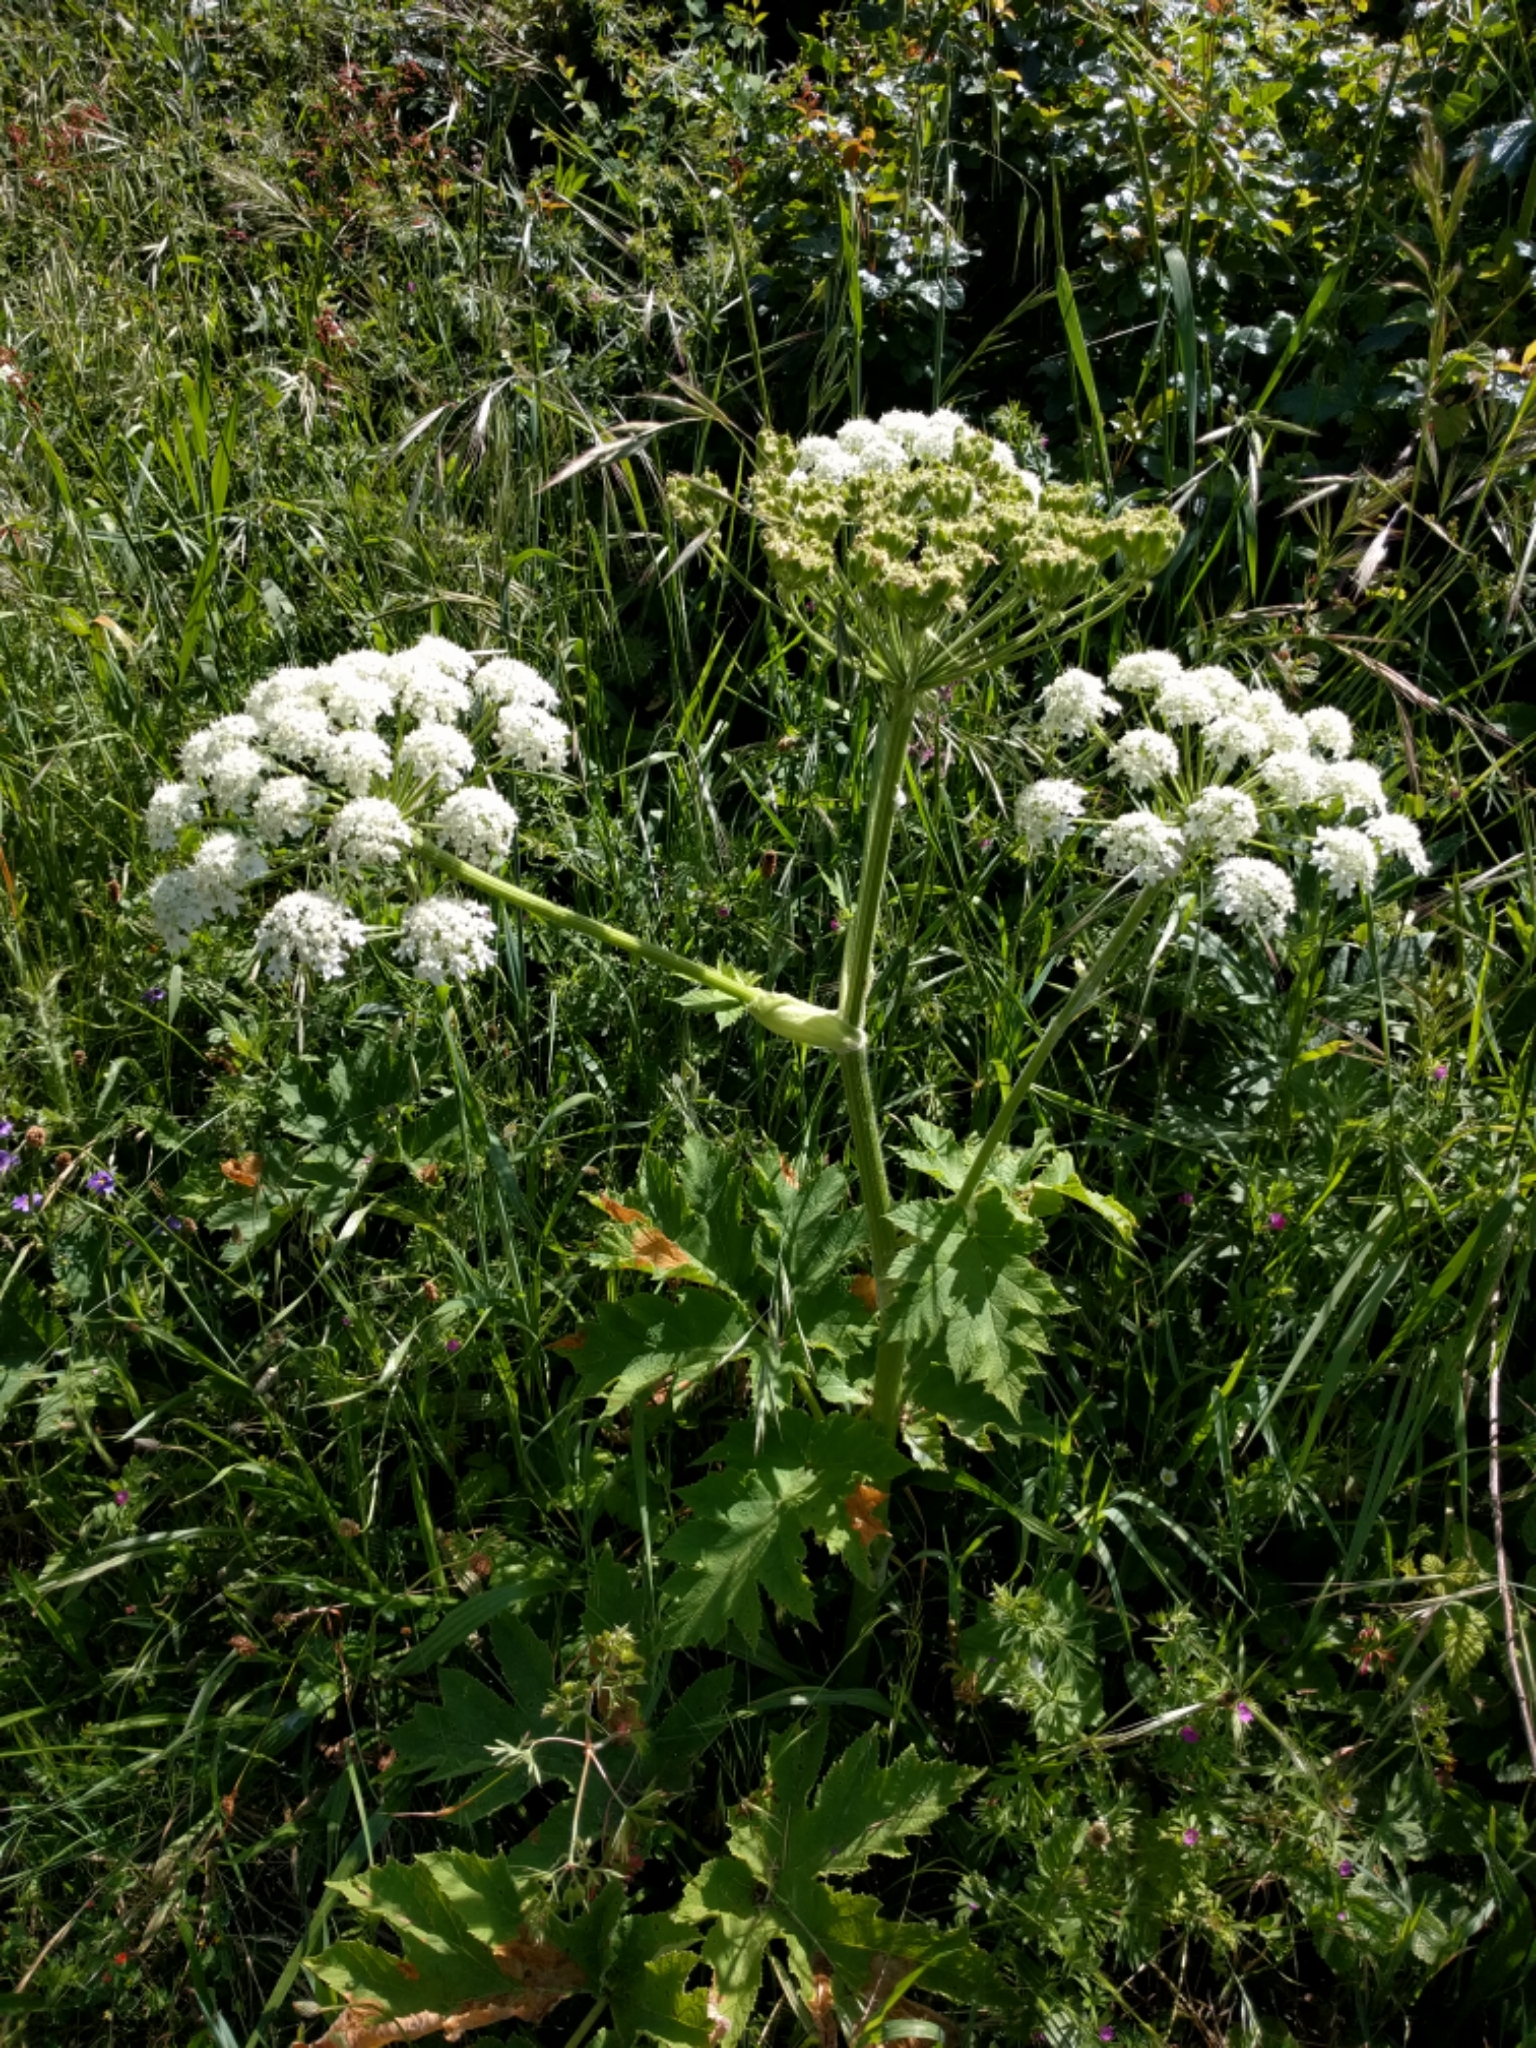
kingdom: Plantae
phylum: Tracheophyta
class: Magnoliopsida
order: Apiales
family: Apiaceae
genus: Heracleum
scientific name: Heracleum maximum
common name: American cow parsnip
